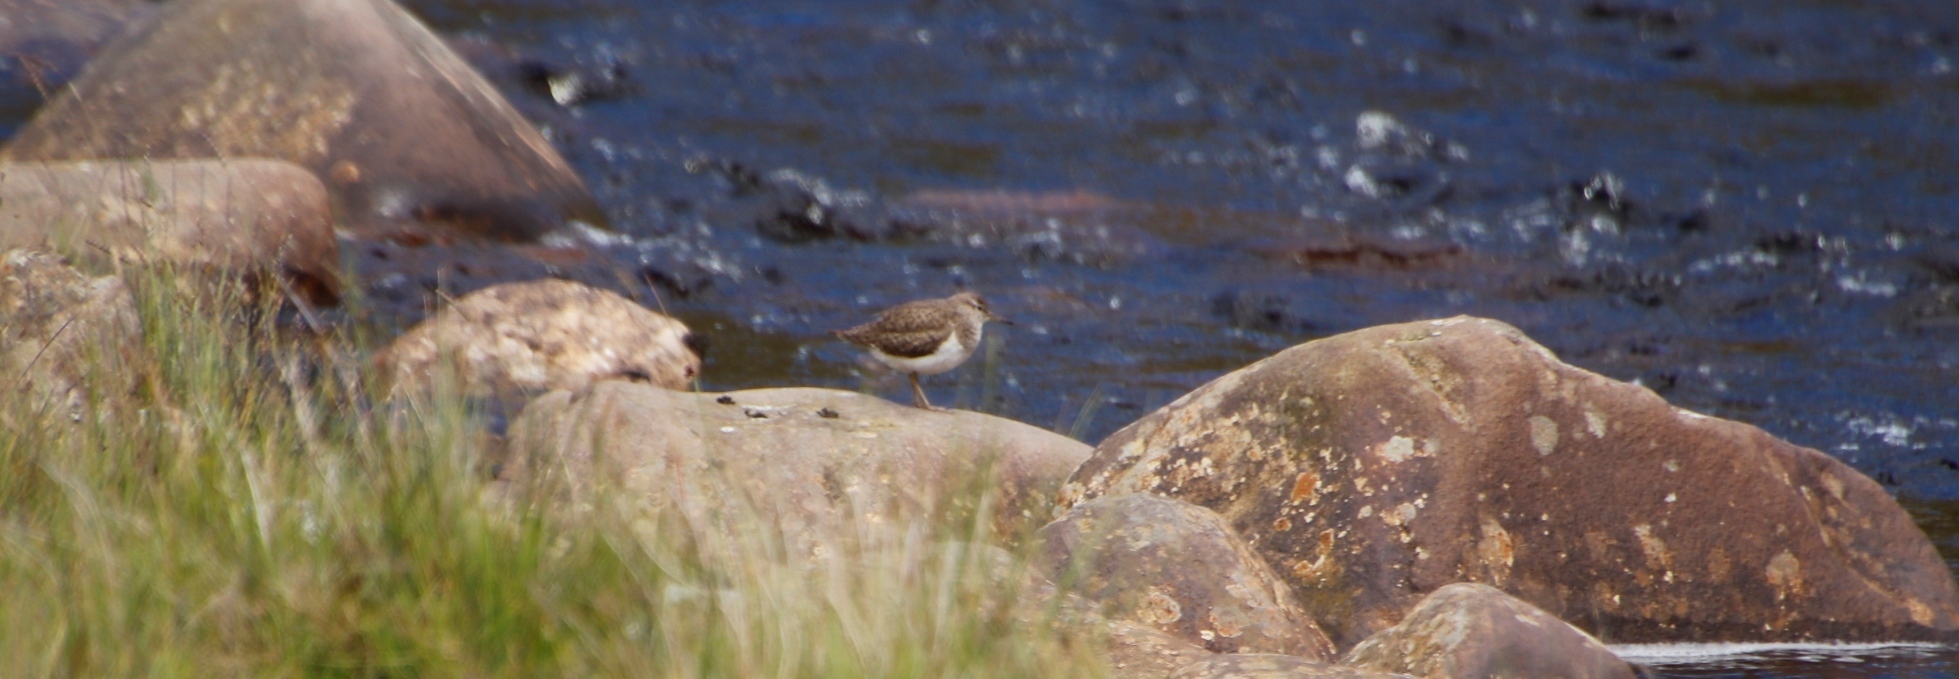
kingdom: Animalia
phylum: Chordata
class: Aves
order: Charadriiformes
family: Scolopacidae
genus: Actitis
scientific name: Actitis hypoleucos
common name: Common sandpiper
